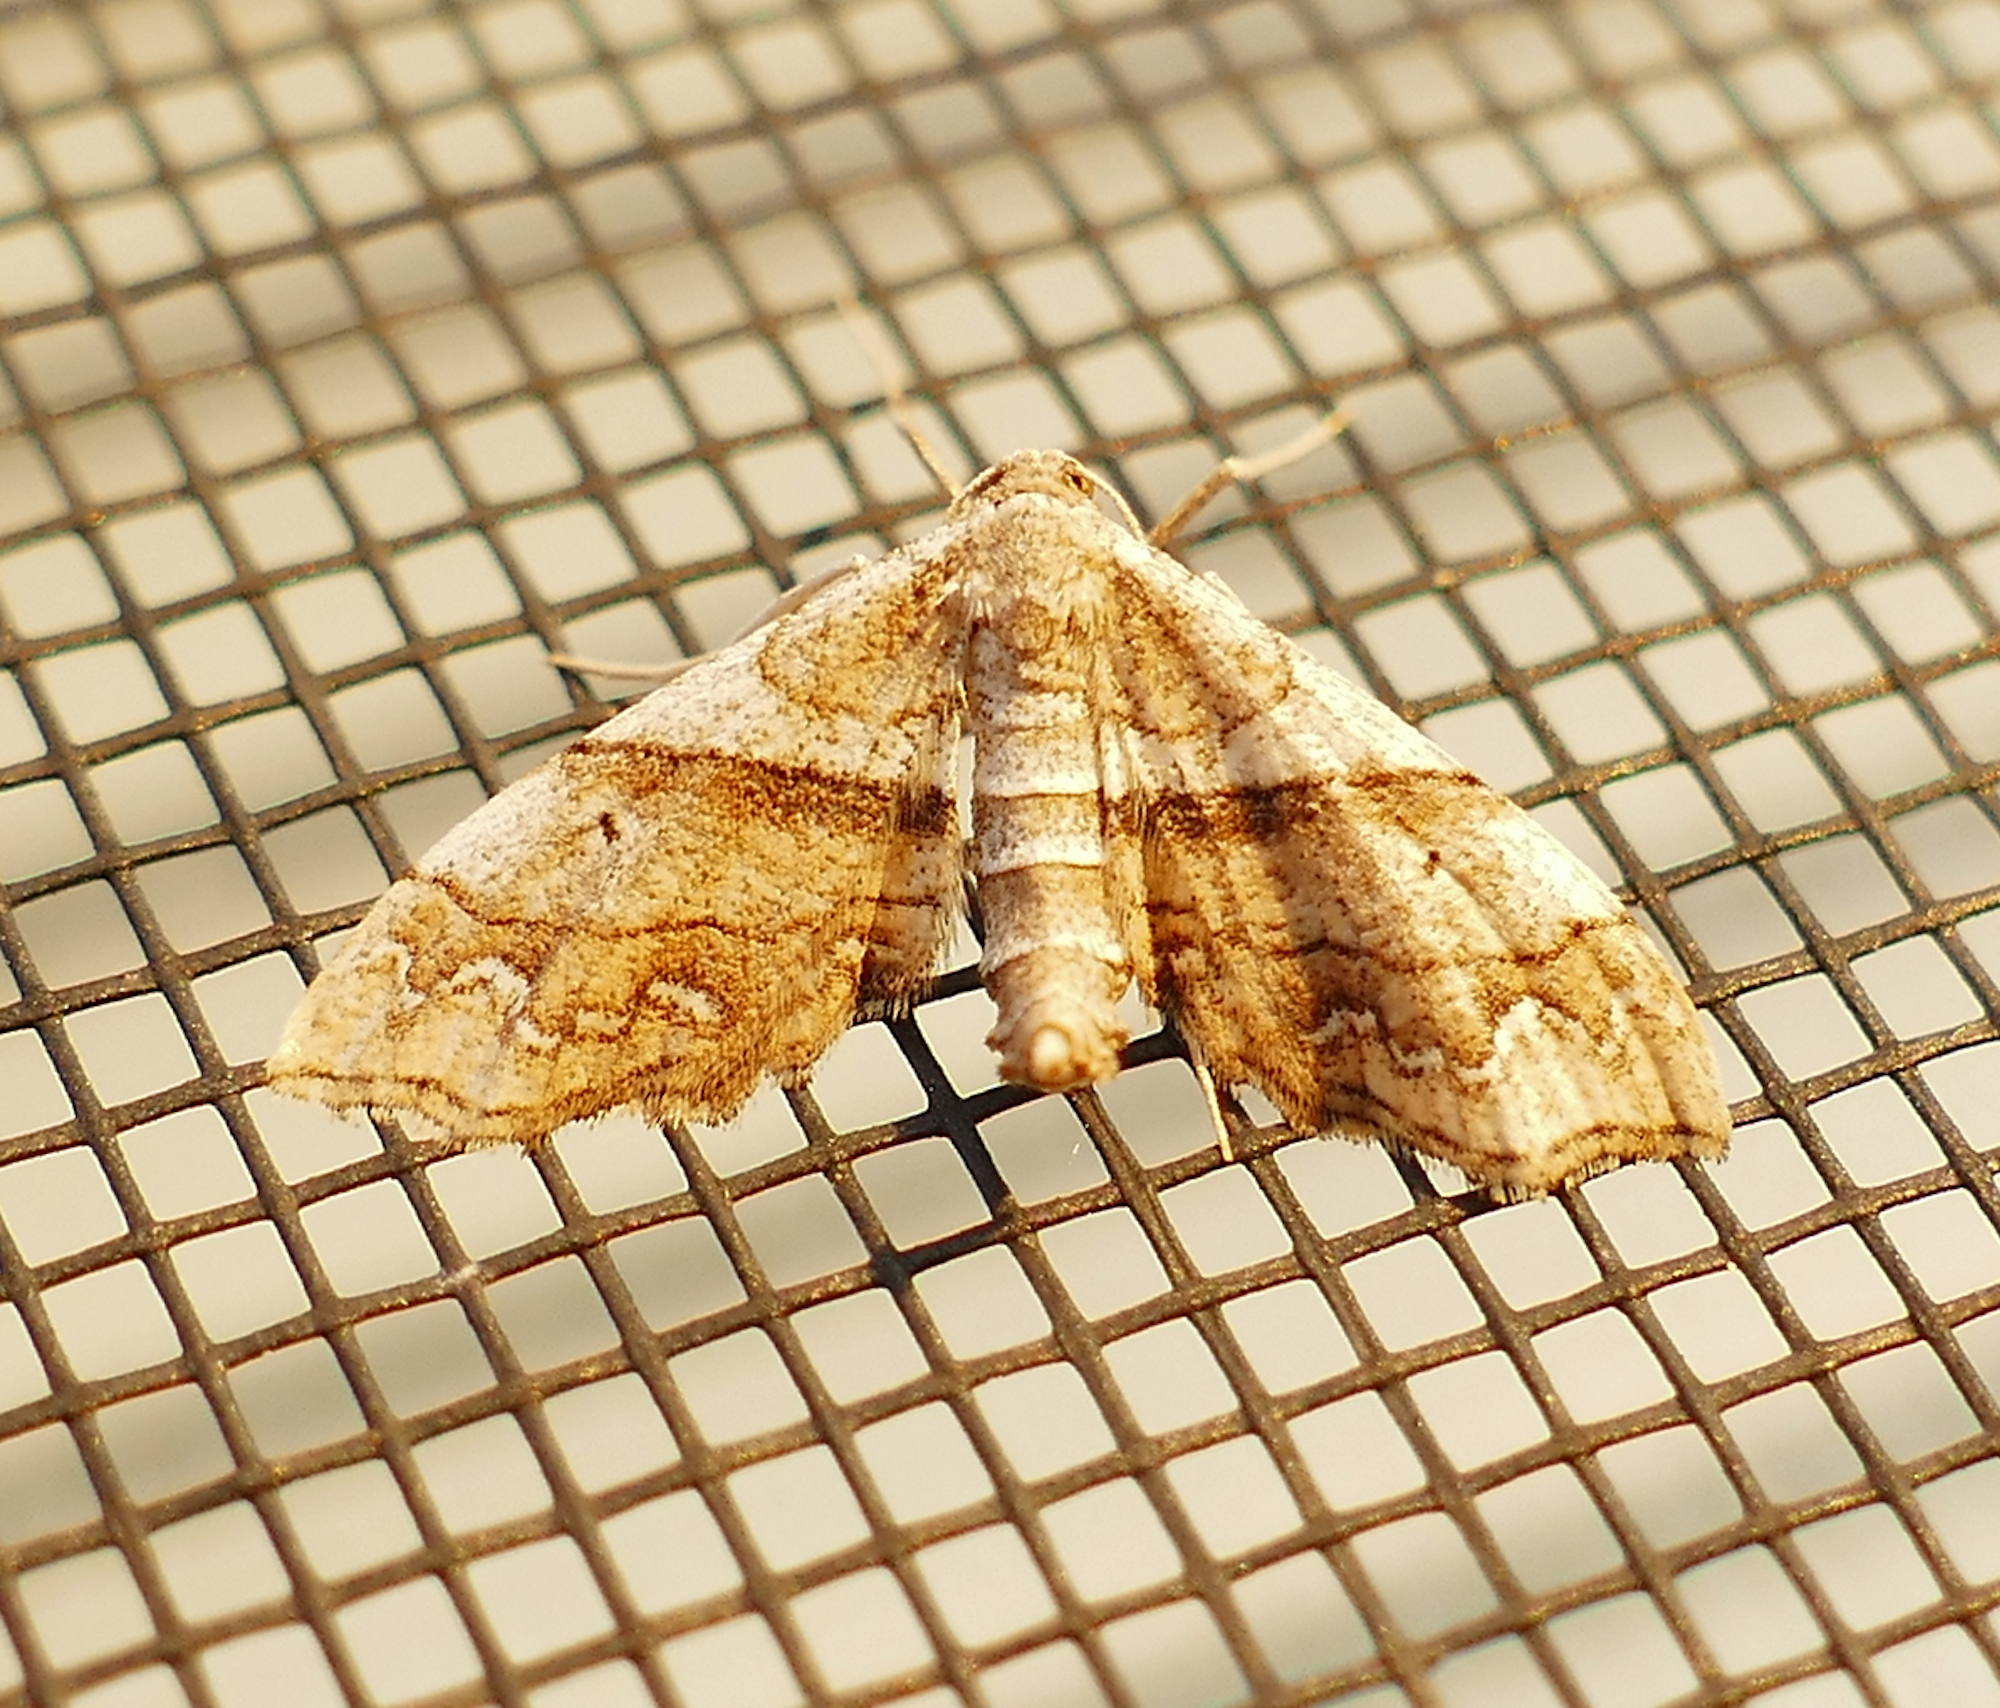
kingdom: Animalia
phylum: Arthropoda
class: Insecta
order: Lepidoptera
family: Geometridae
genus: Odontoptila
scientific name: Odontoptila obrimo
